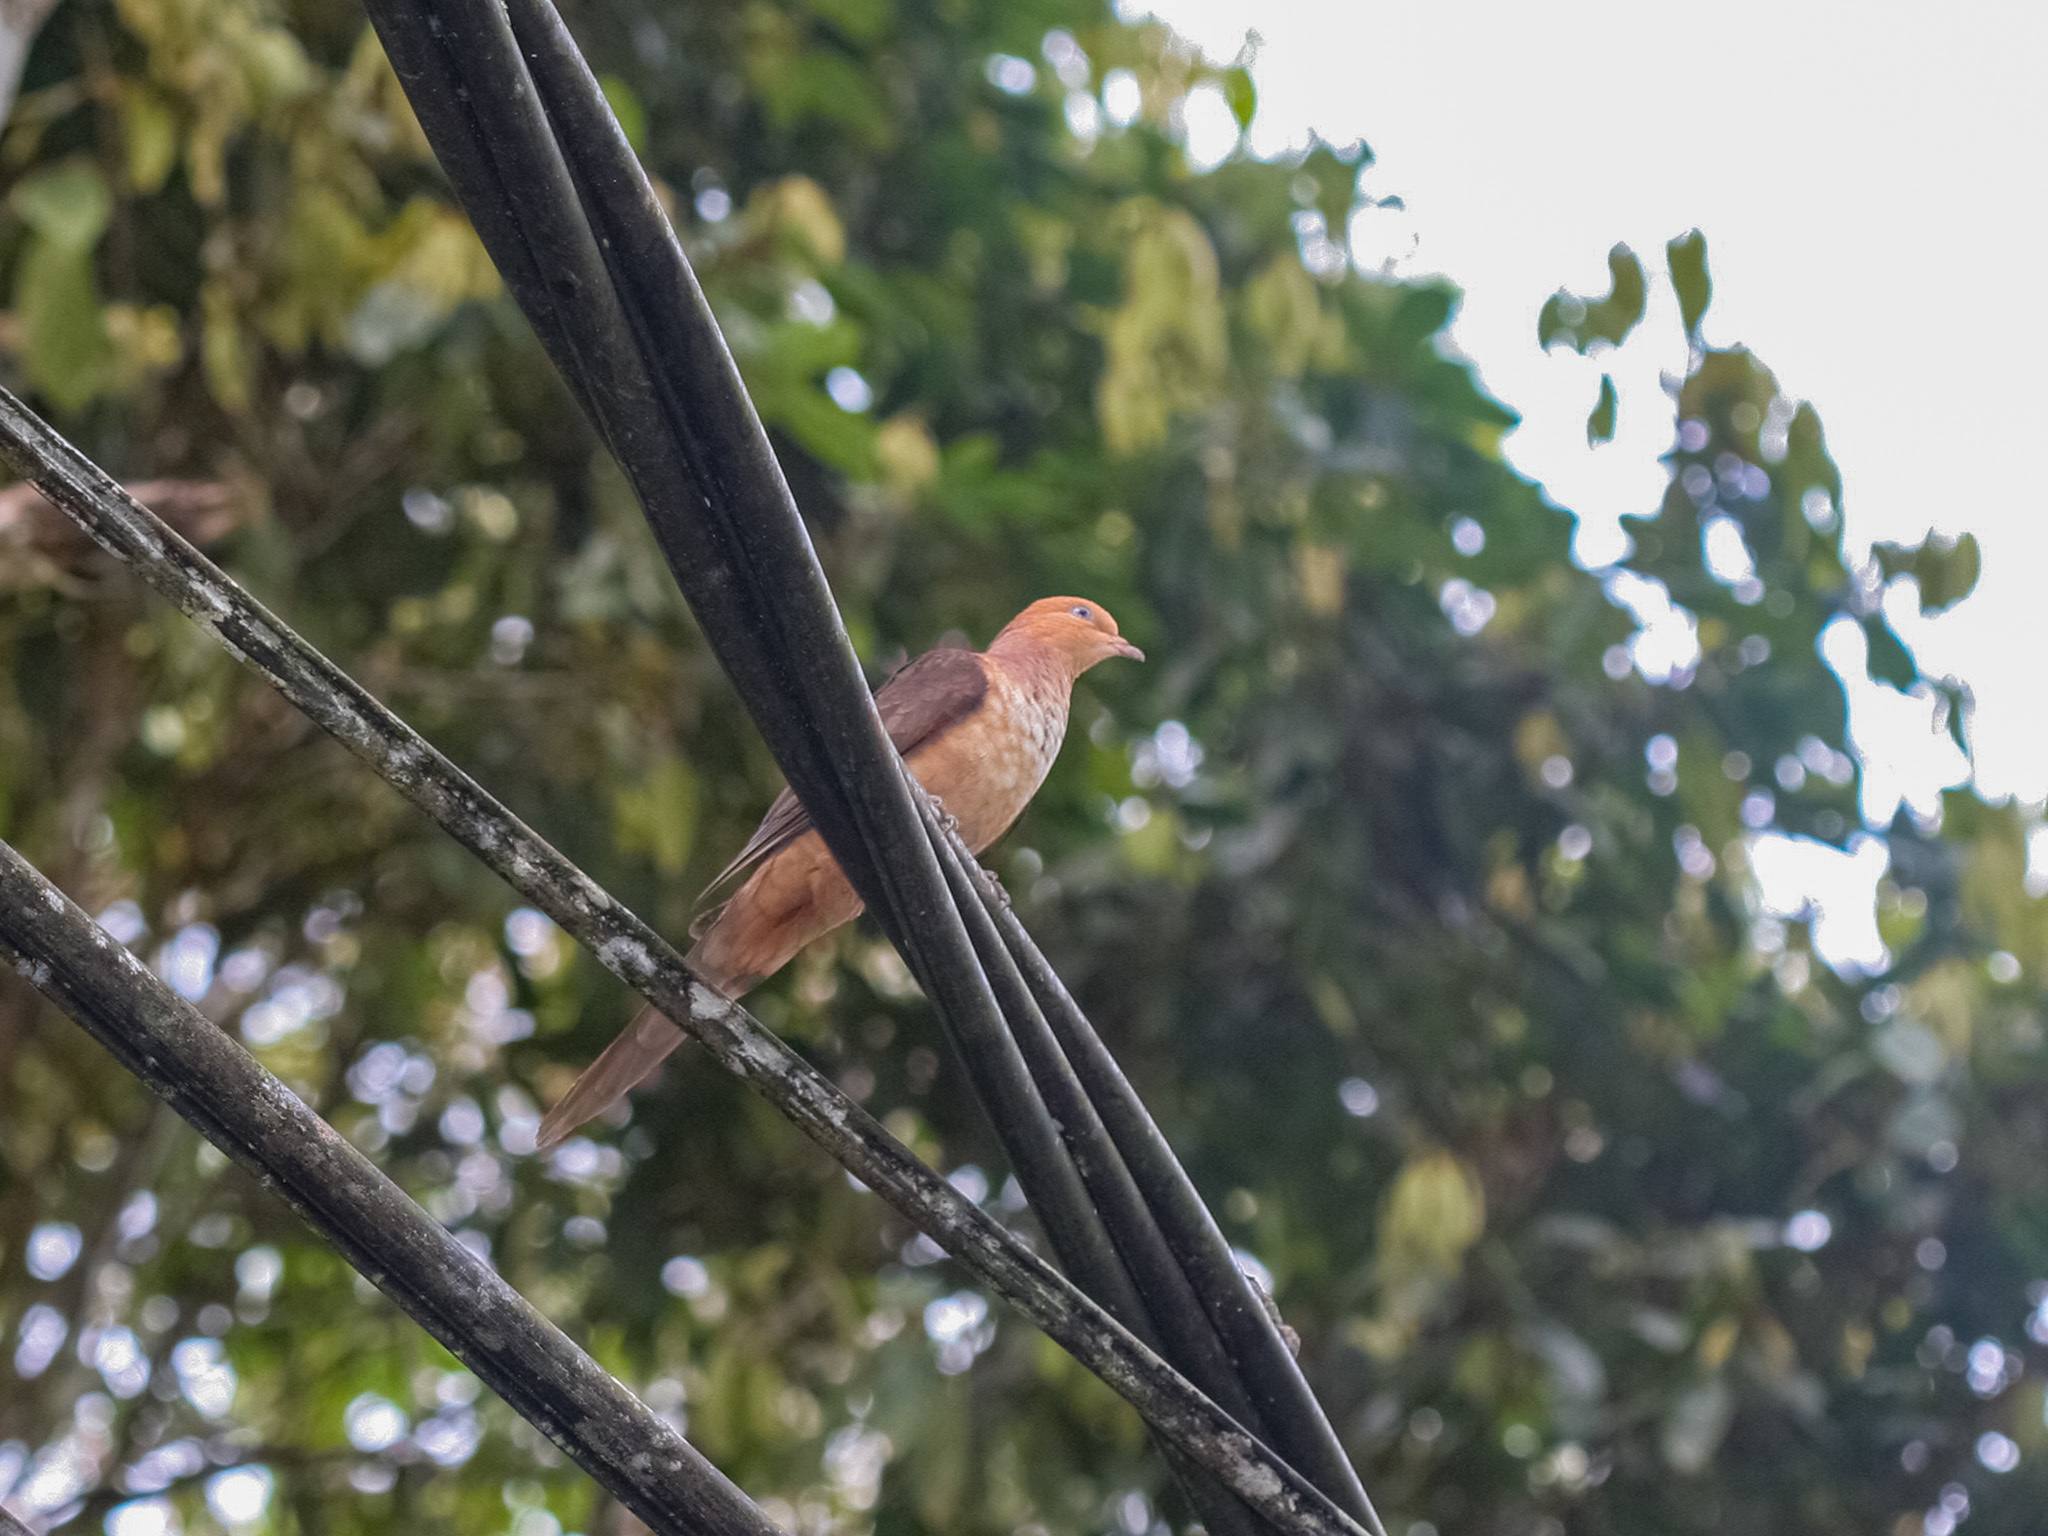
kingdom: Animalia
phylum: Chordata
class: Aves
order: Columbiformes
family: Columbidae
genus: Macropygia
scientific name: Macropygia ruficeps
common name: Little cuckoo-dove
